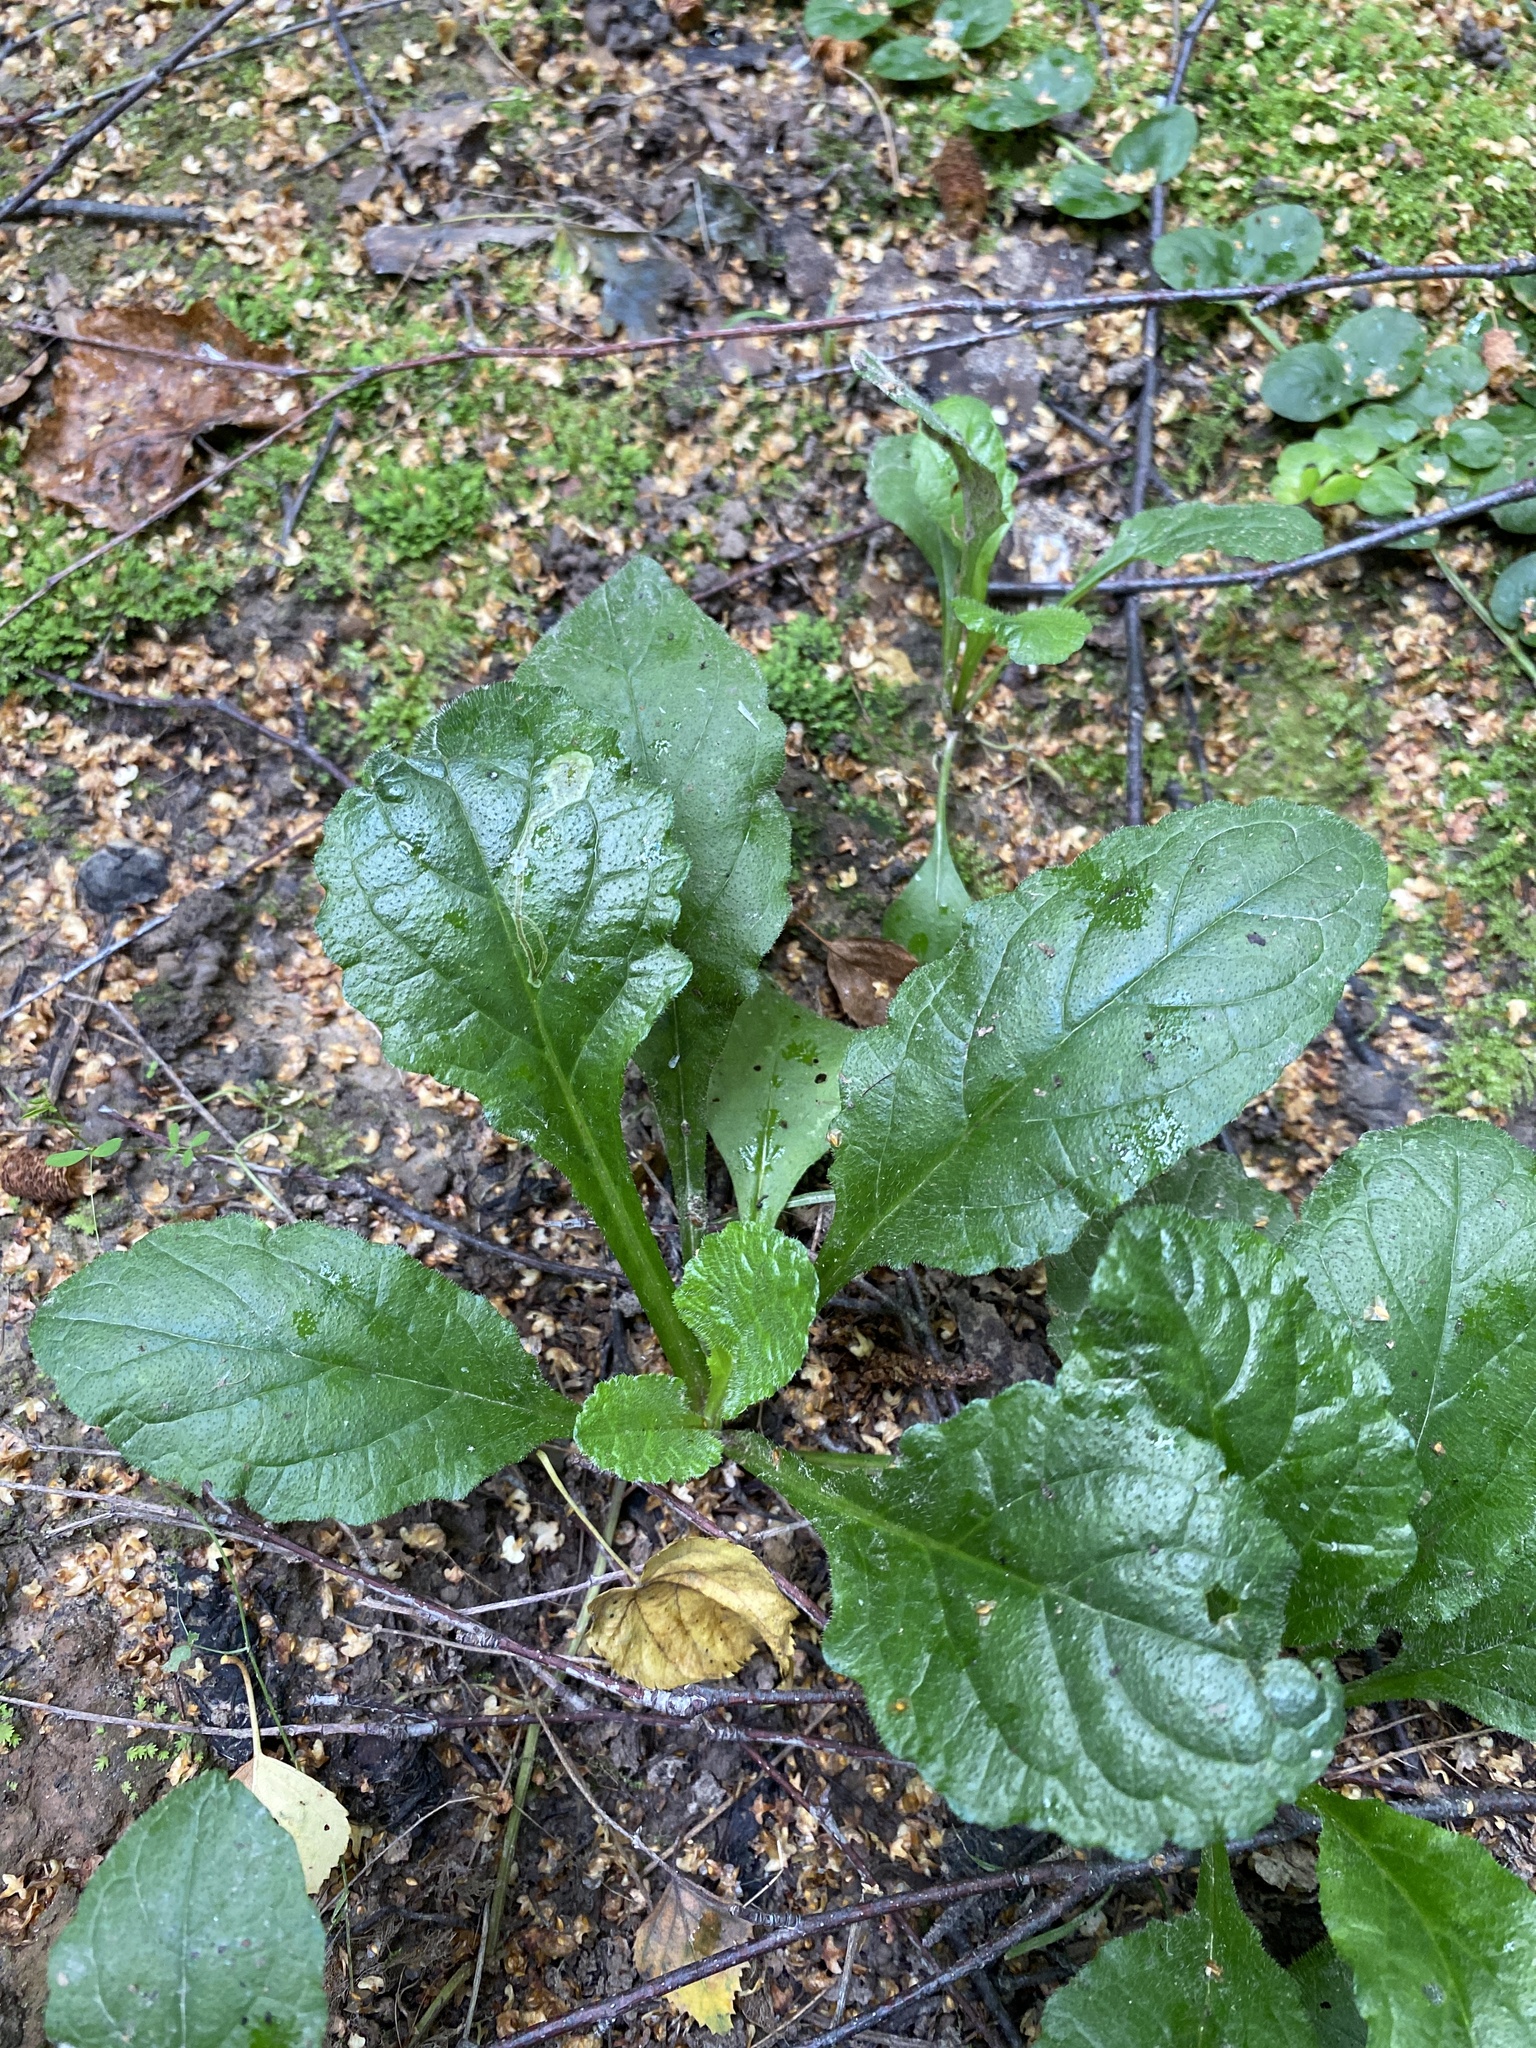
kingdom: Plantae
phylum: Tracheophyta
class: Magnoliopsida
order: Lamiales
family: Lamiaceae
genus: Ajuga
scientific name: Ajuga reptans
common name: Bugle
